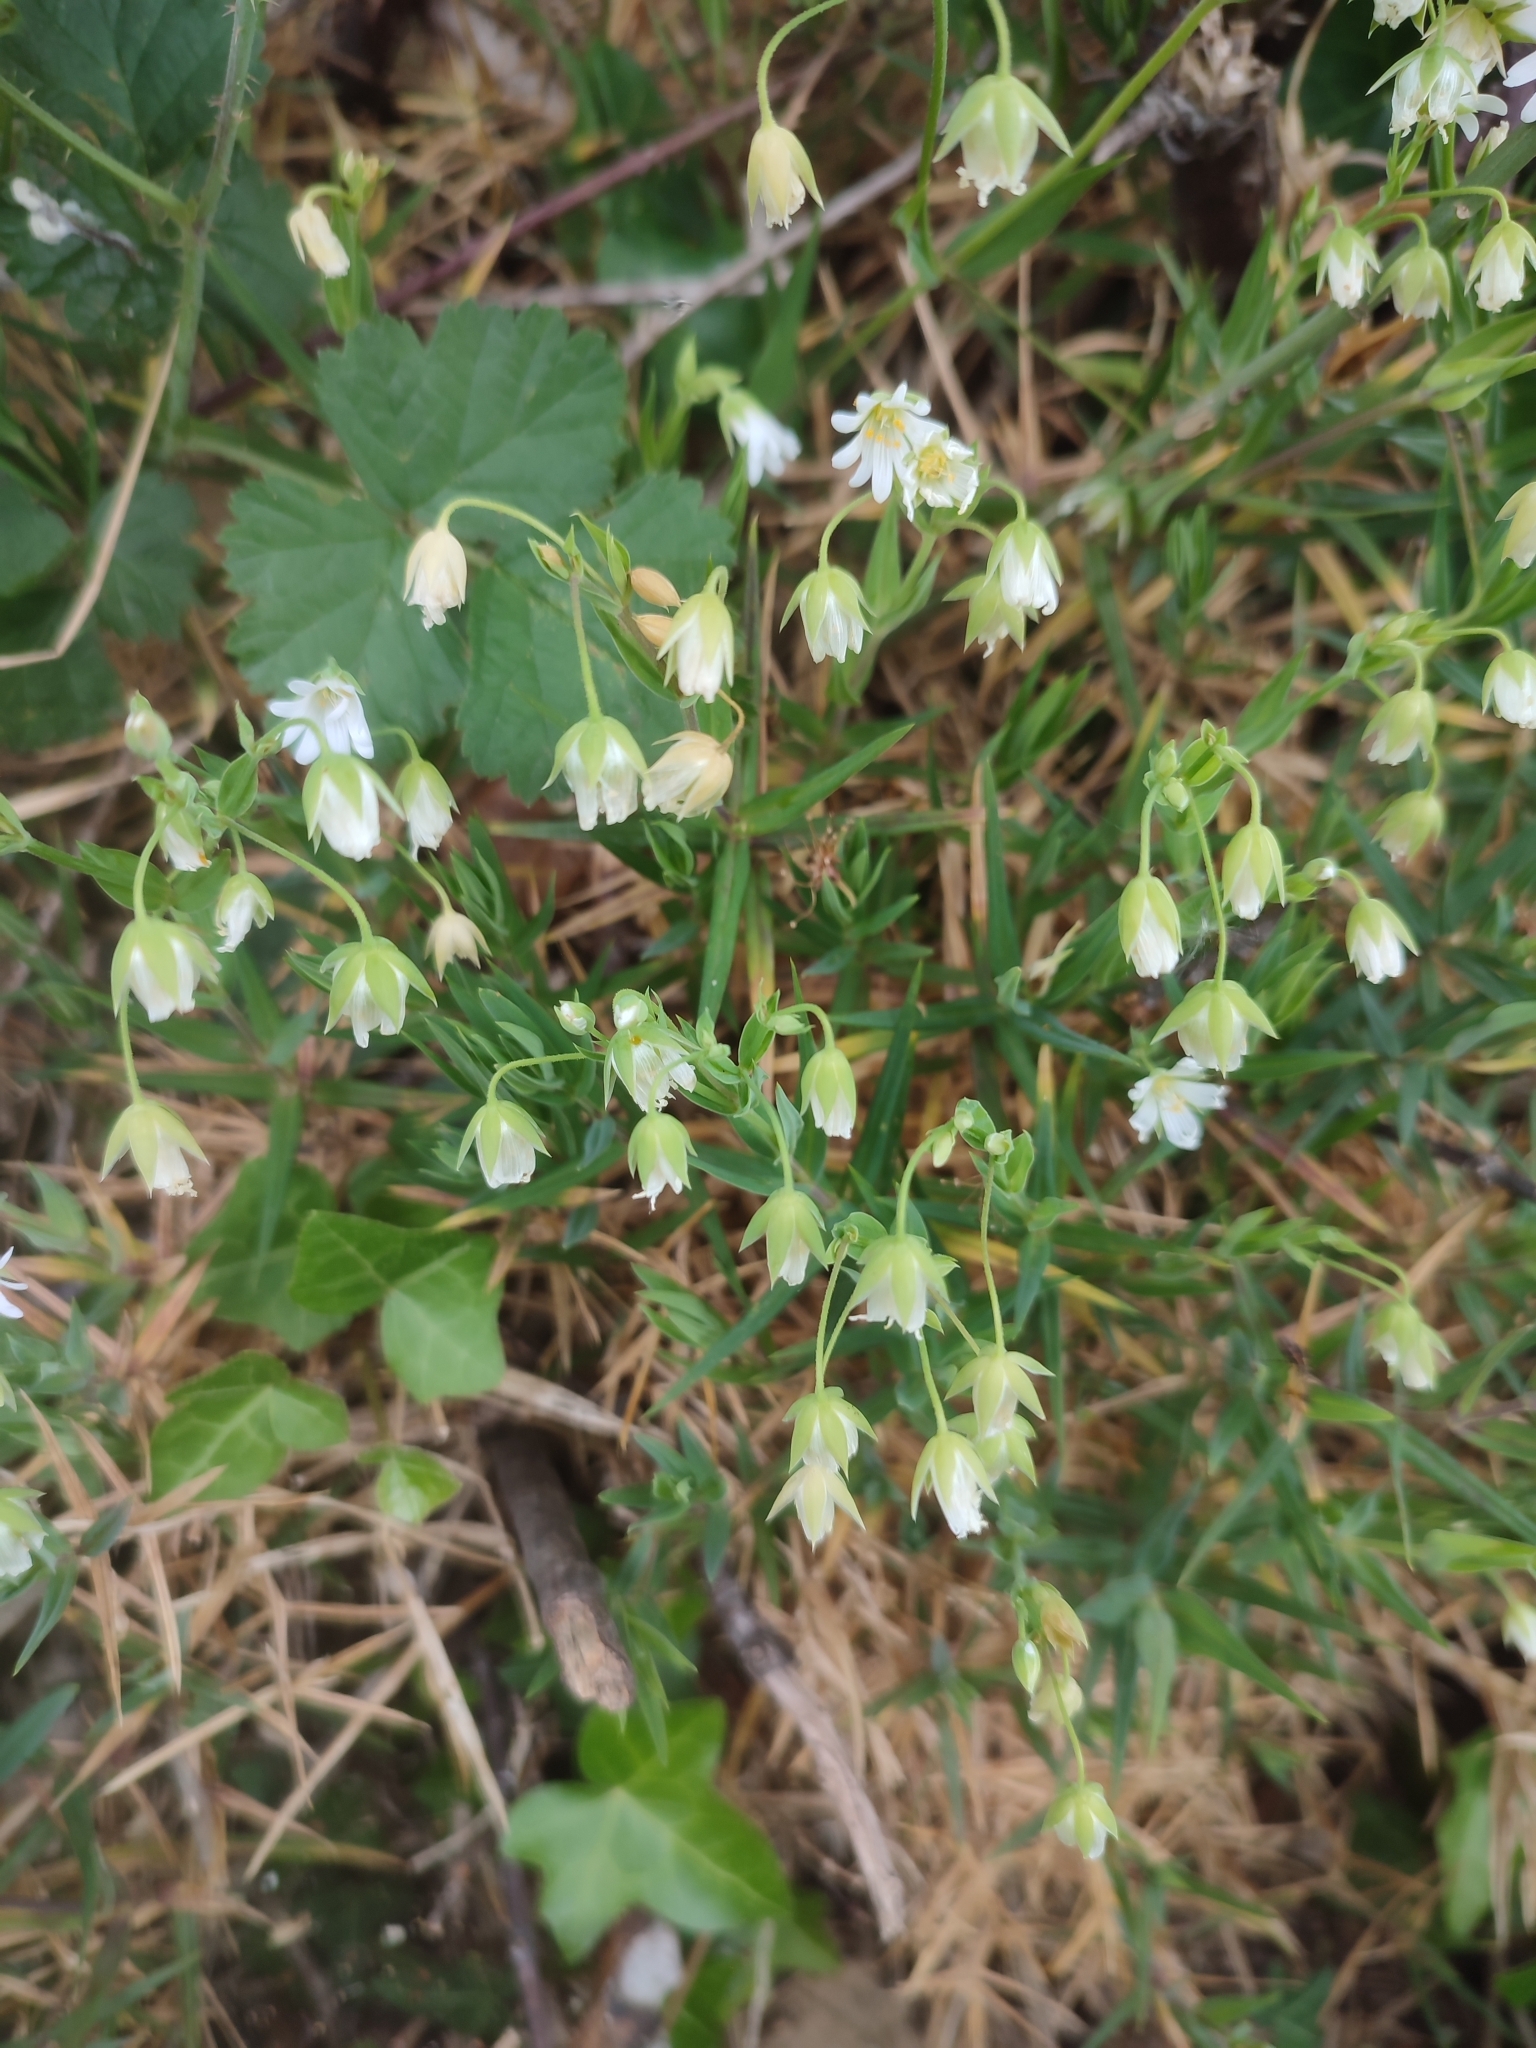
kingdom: Plantae
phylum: Tracheophyta
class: Magnoliopsida
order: Caryophyllales
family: Caryophyllaceae
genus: Rabelera
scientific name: Rabelera holostea
